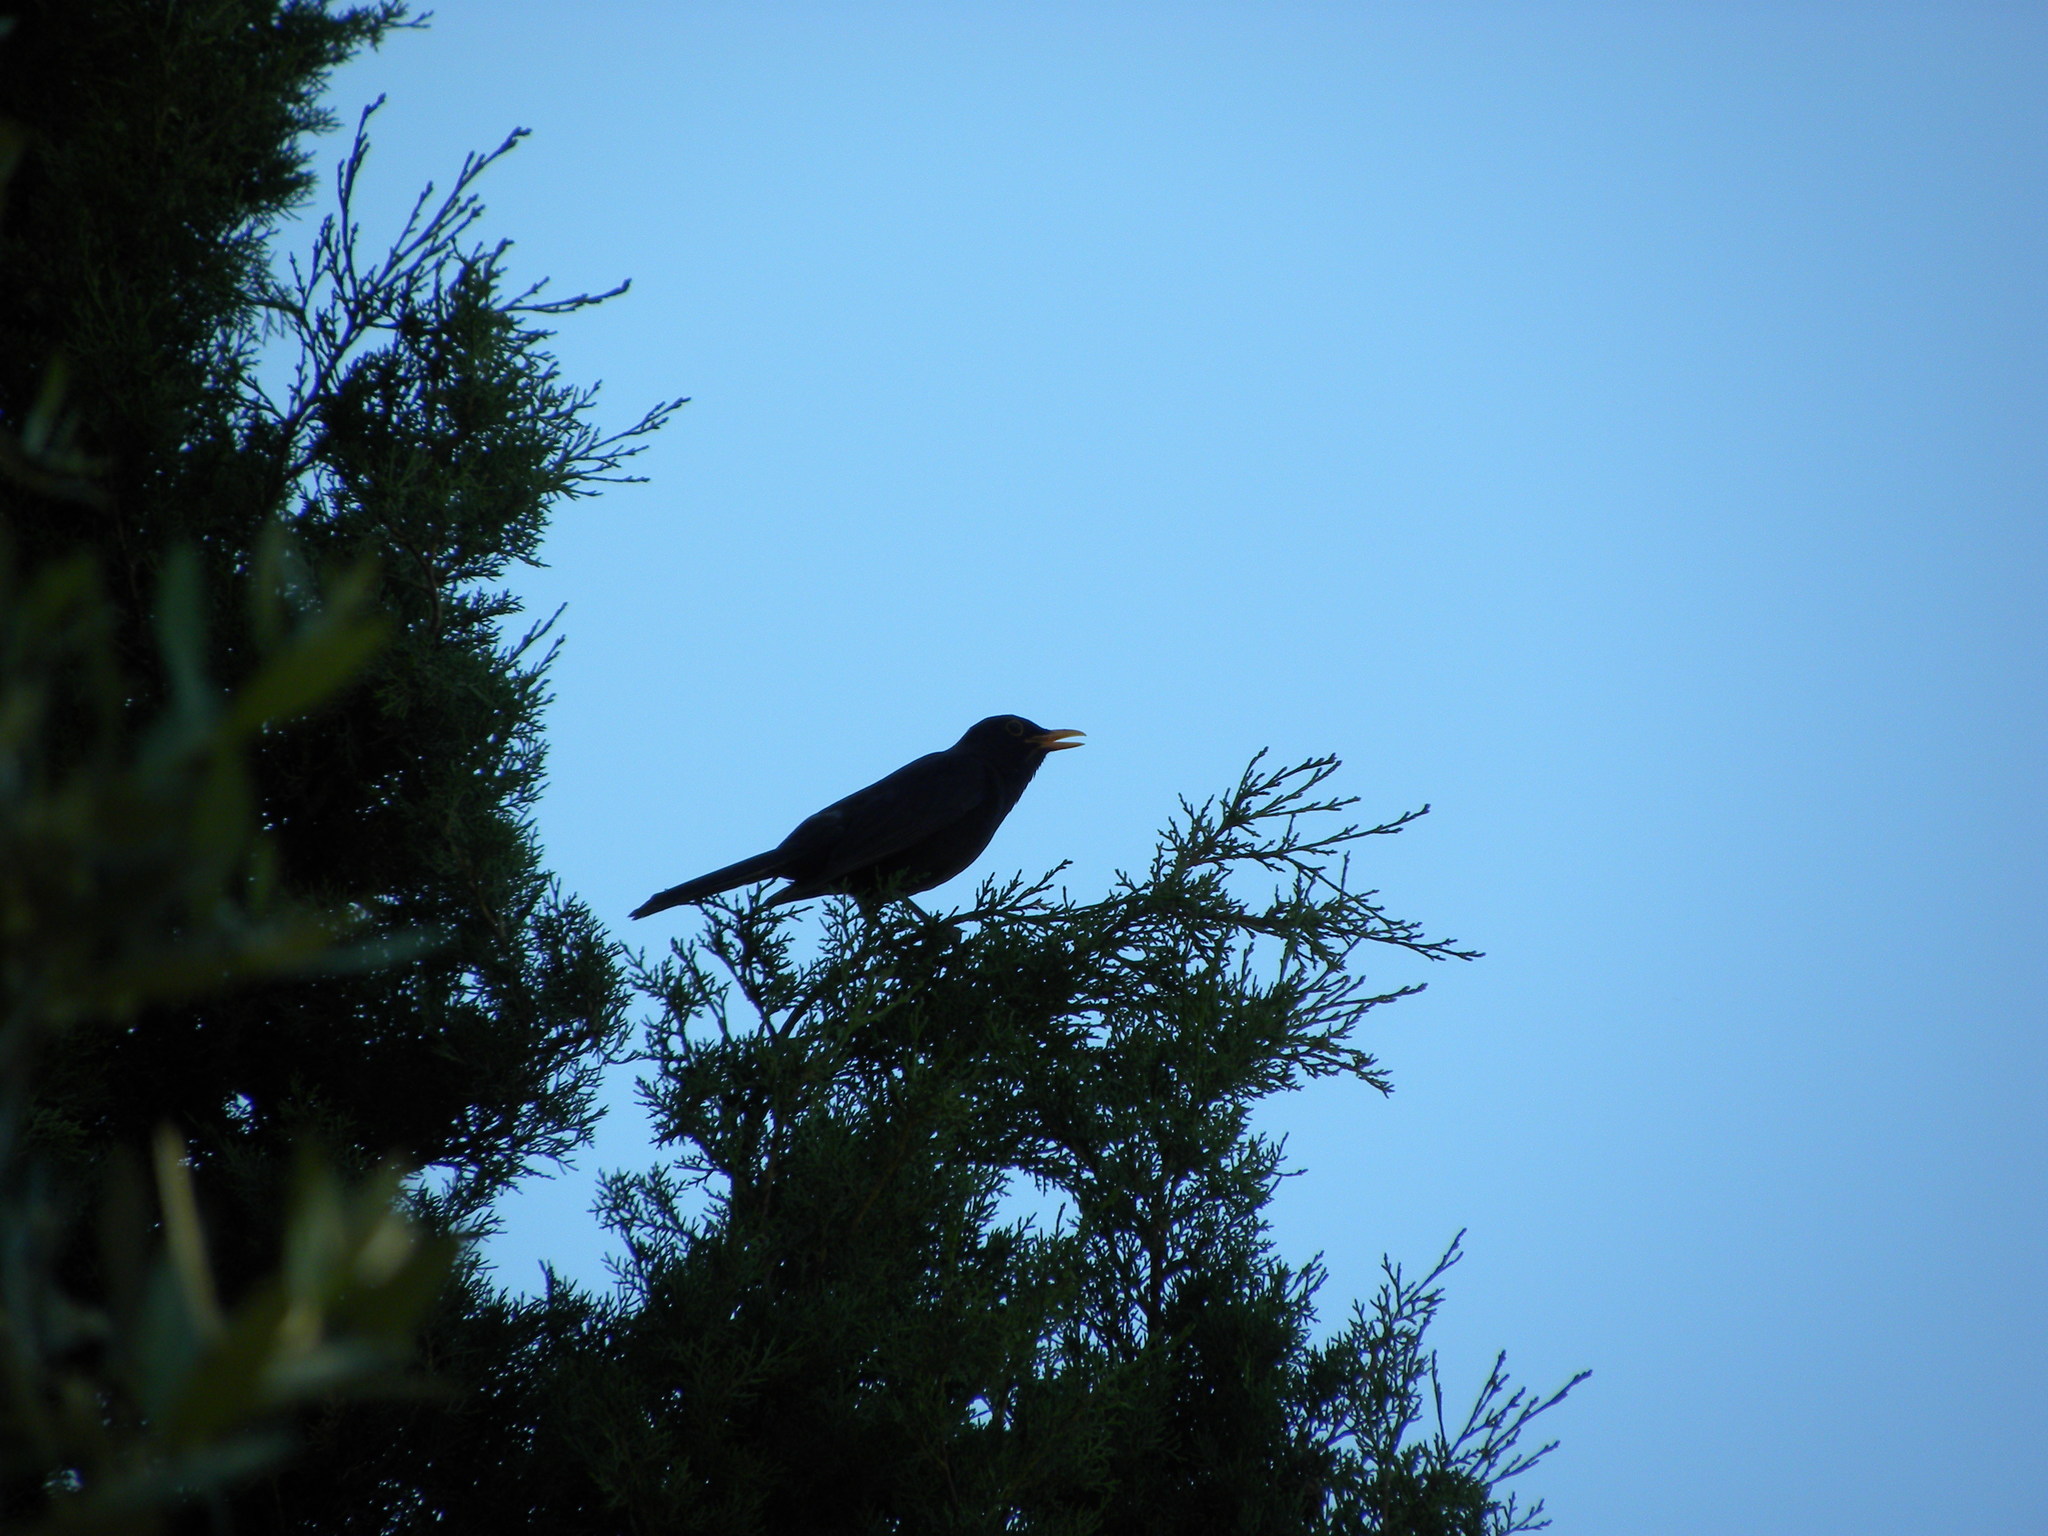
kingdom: Animalia
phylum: Chordata
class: Aves
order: Passeriformes
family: Turdidae
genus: Turdus
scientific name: Turdus merula
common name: Common blackbird
